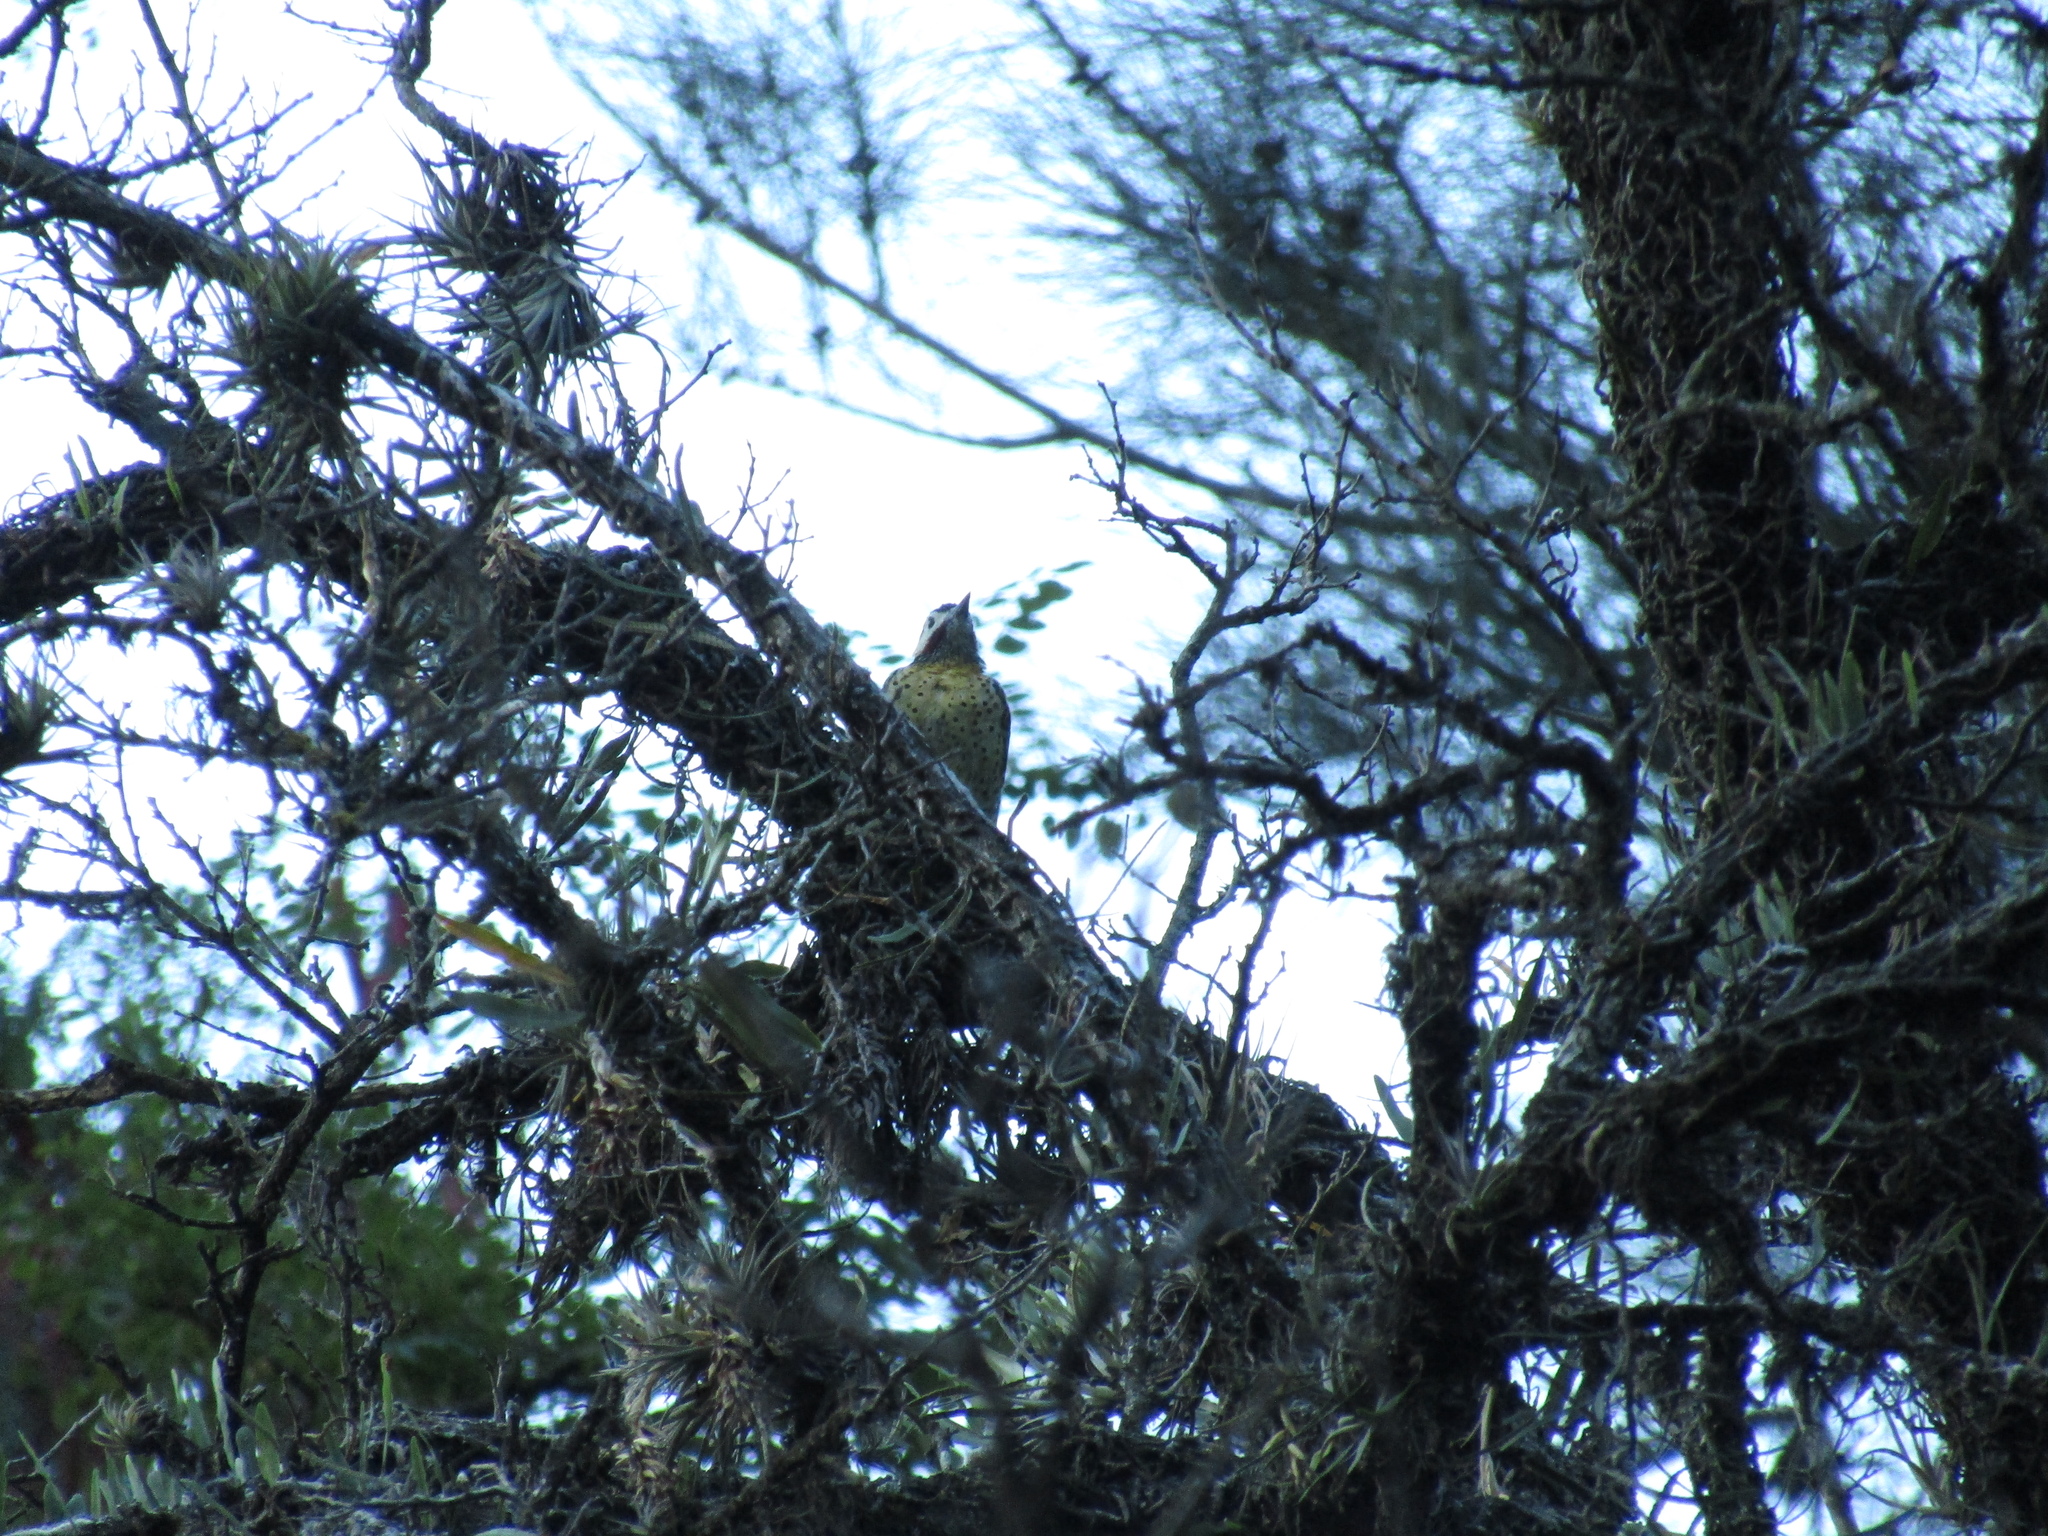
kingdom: Animalia
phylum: Chordata
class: Aves
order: Piciformes
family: Picidae
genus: Colaptes
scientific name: Colaptes melanochloros
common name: Green-barred woodpecker
